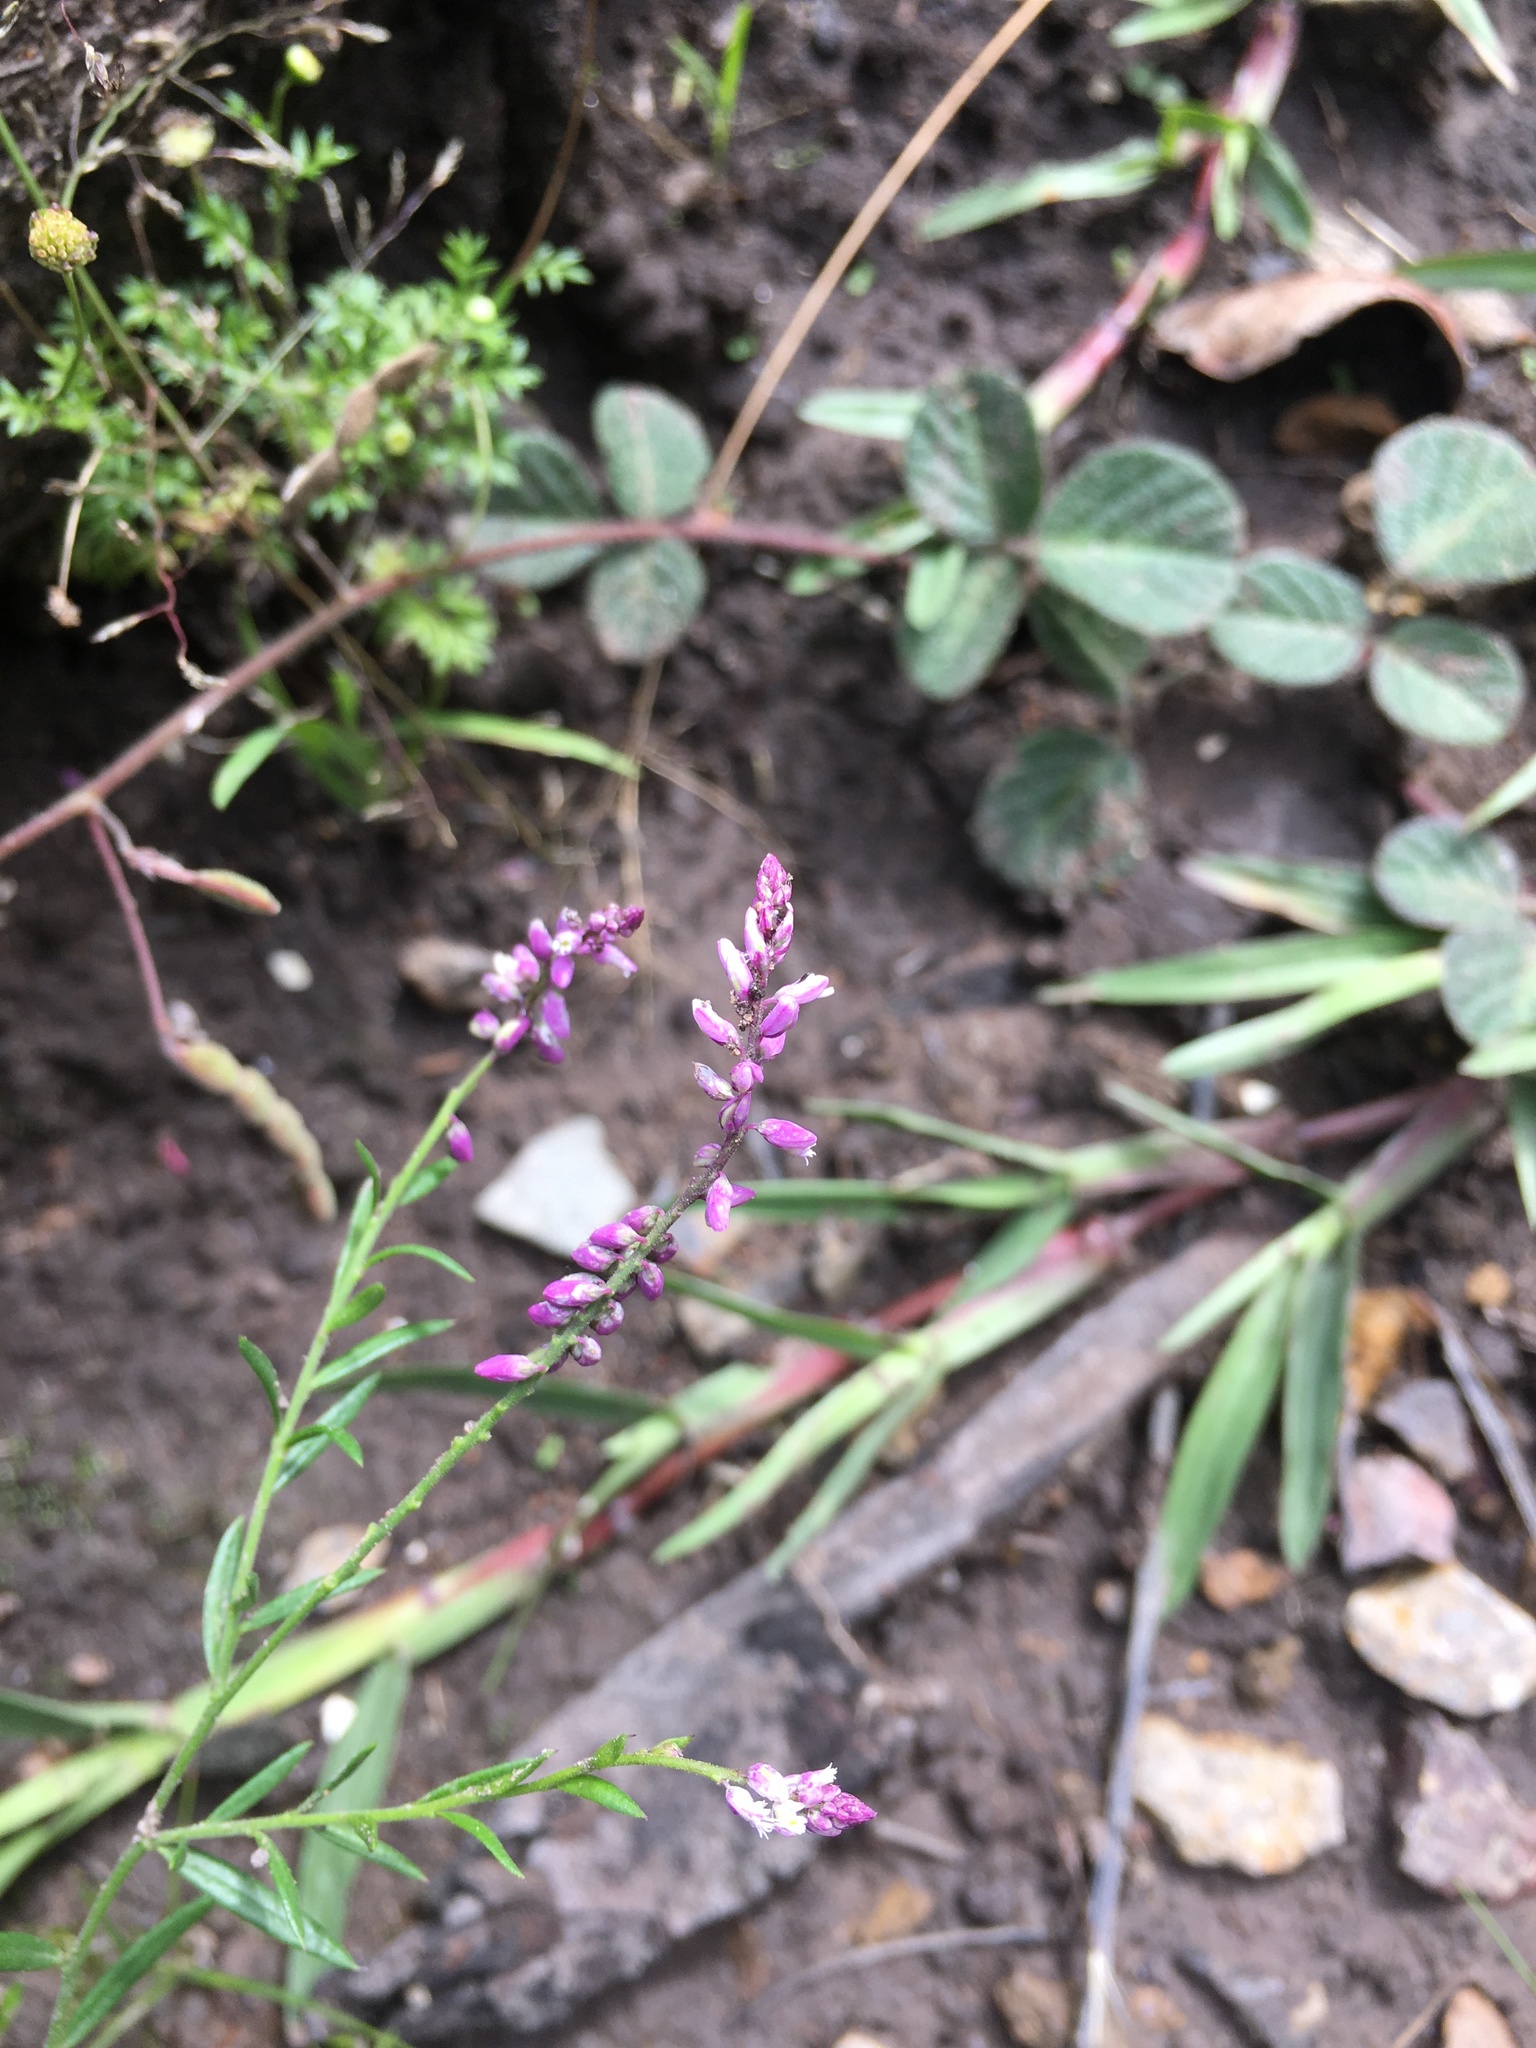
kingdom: Plantae
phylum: Tracheophyta
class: Magnoliopsida
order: Fabales
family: Polygalaceae
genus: Polygala
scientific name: Polygala paniculata
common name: Orosne
